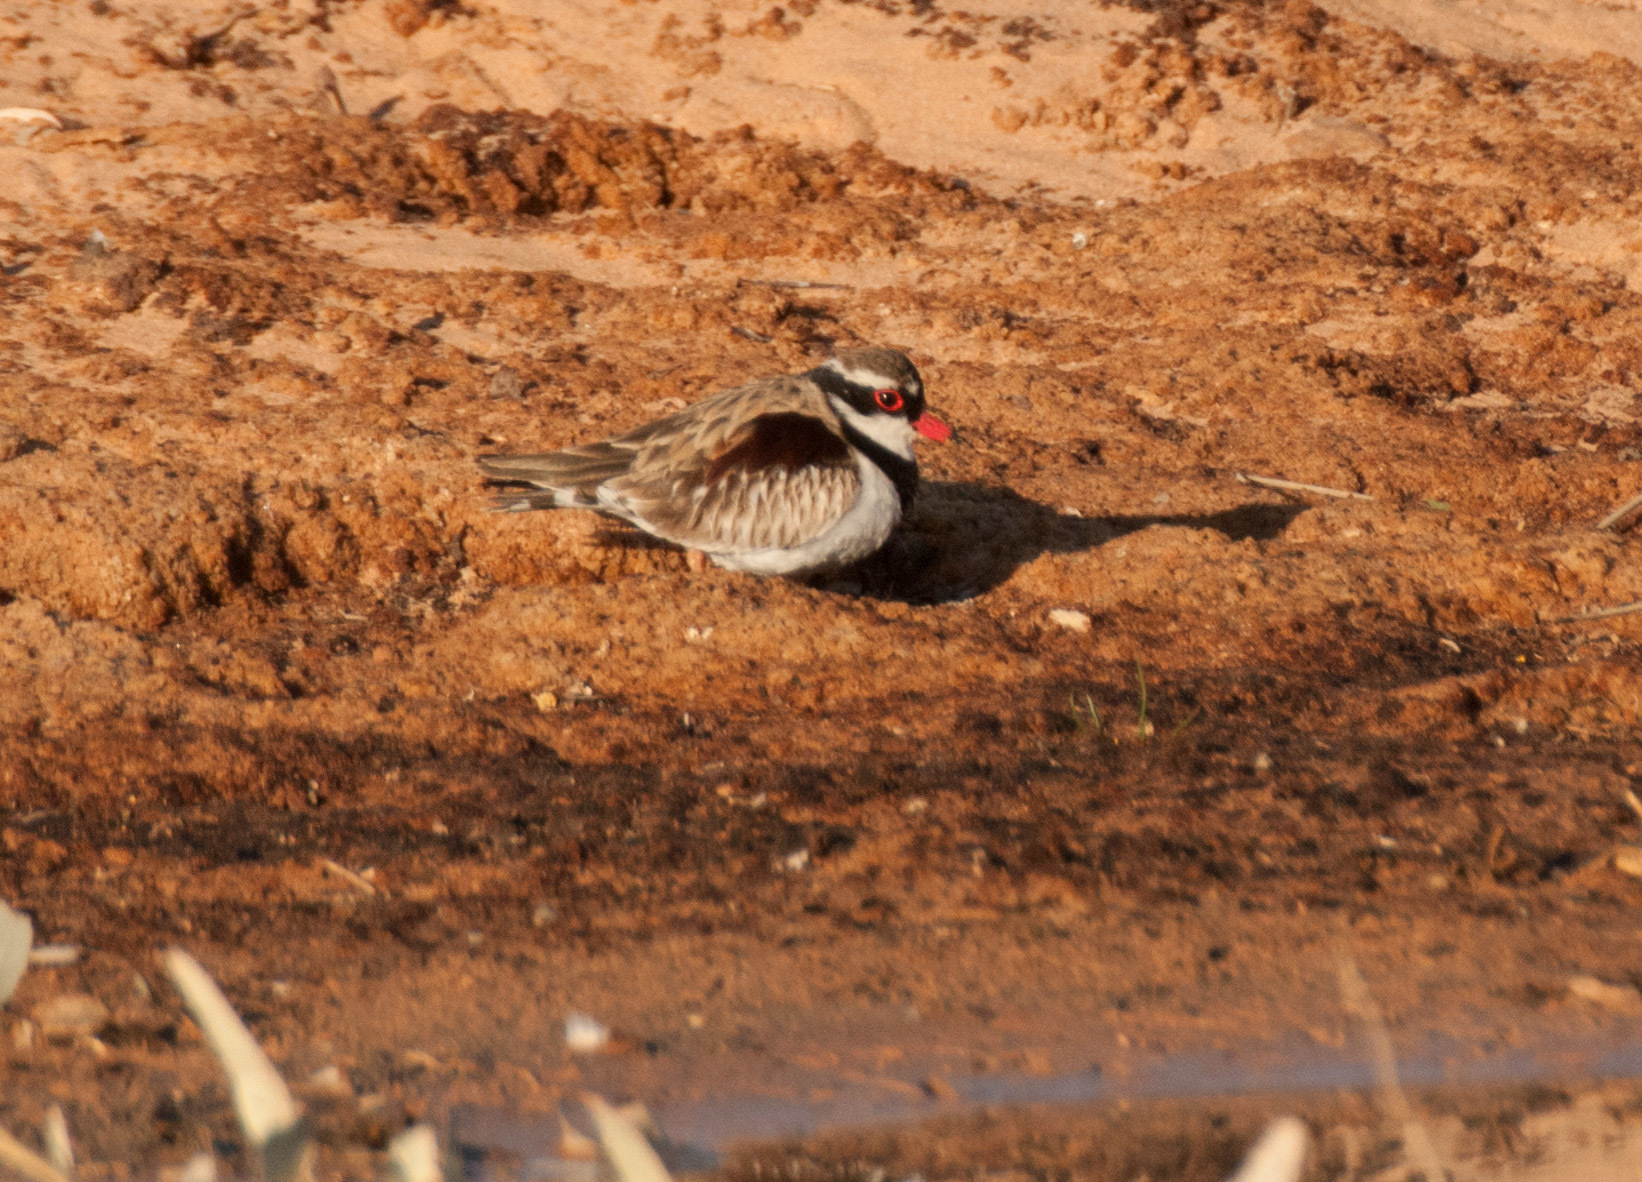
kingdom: Animalia
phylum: Chordata
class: Aves
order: Charadriiformes
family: Charadriidae
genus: Elseyornis
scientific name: Elseyornis melanops
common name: Black-fronted dotterel
